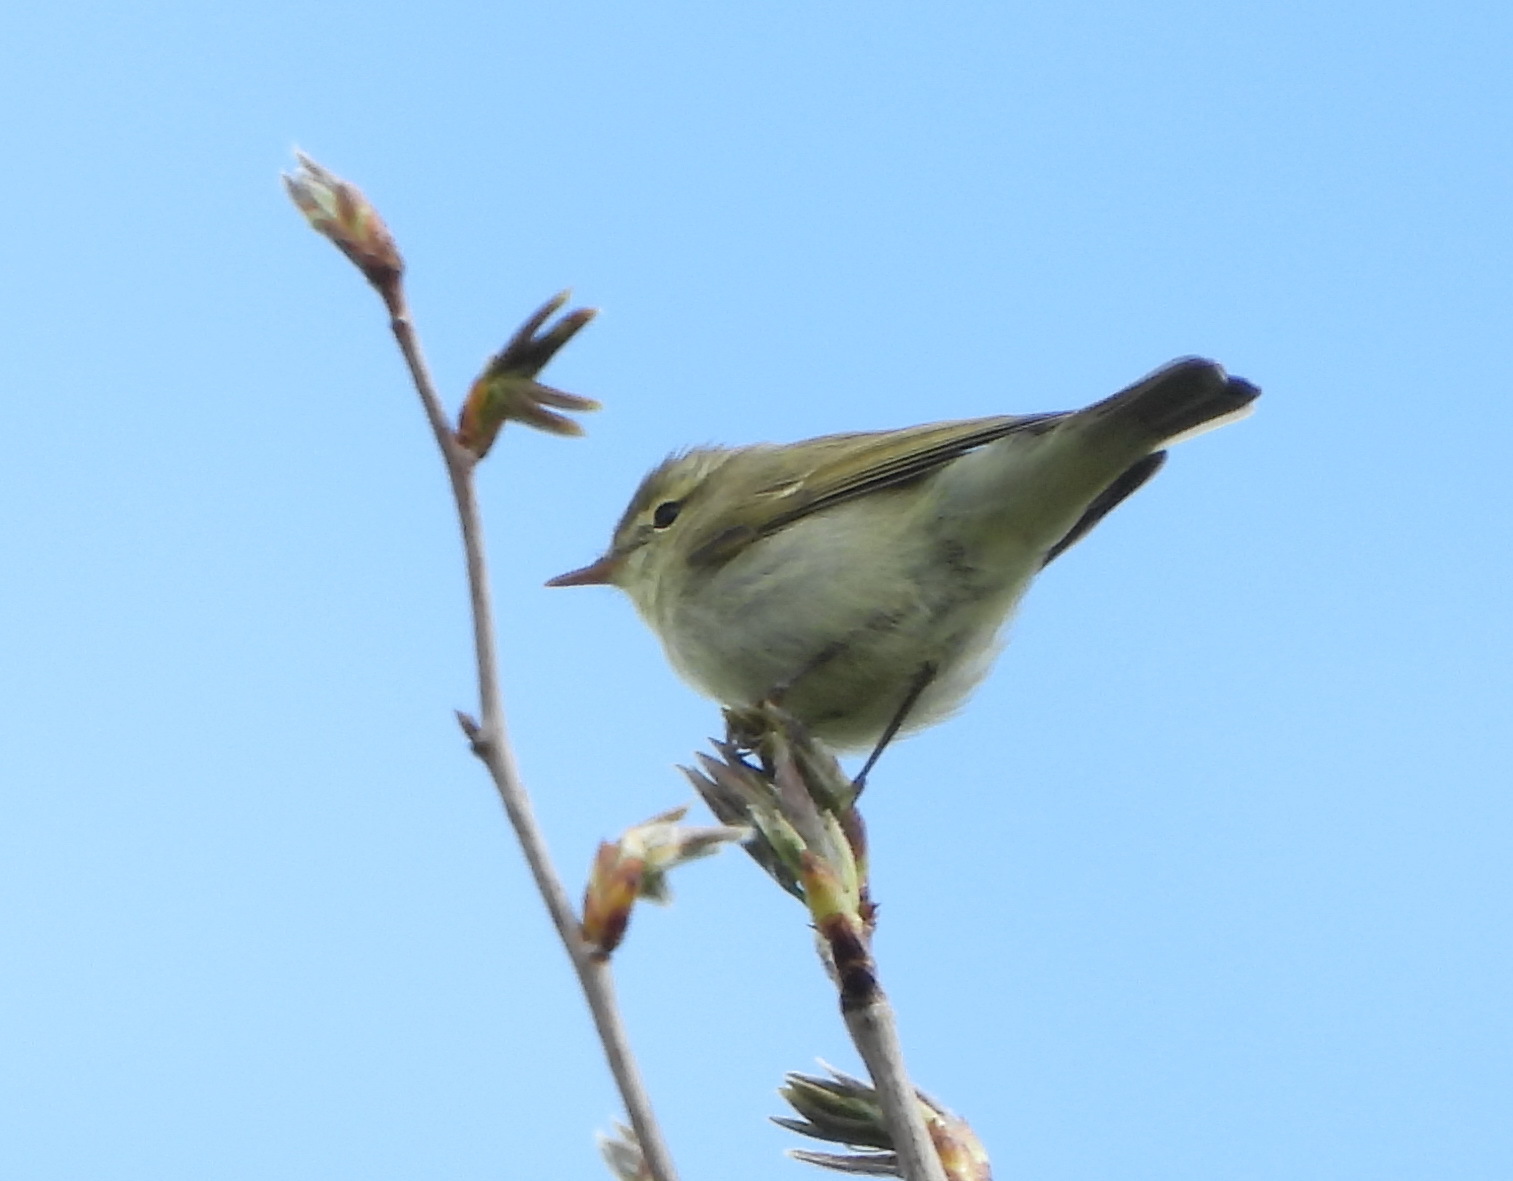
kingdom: Animalia
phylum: Chordata
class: Aves
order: Passeriformes
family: Phylloscopidae
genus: Phylloscopus
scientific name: Phylloscopus trochiloides
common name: Greenish warbler
